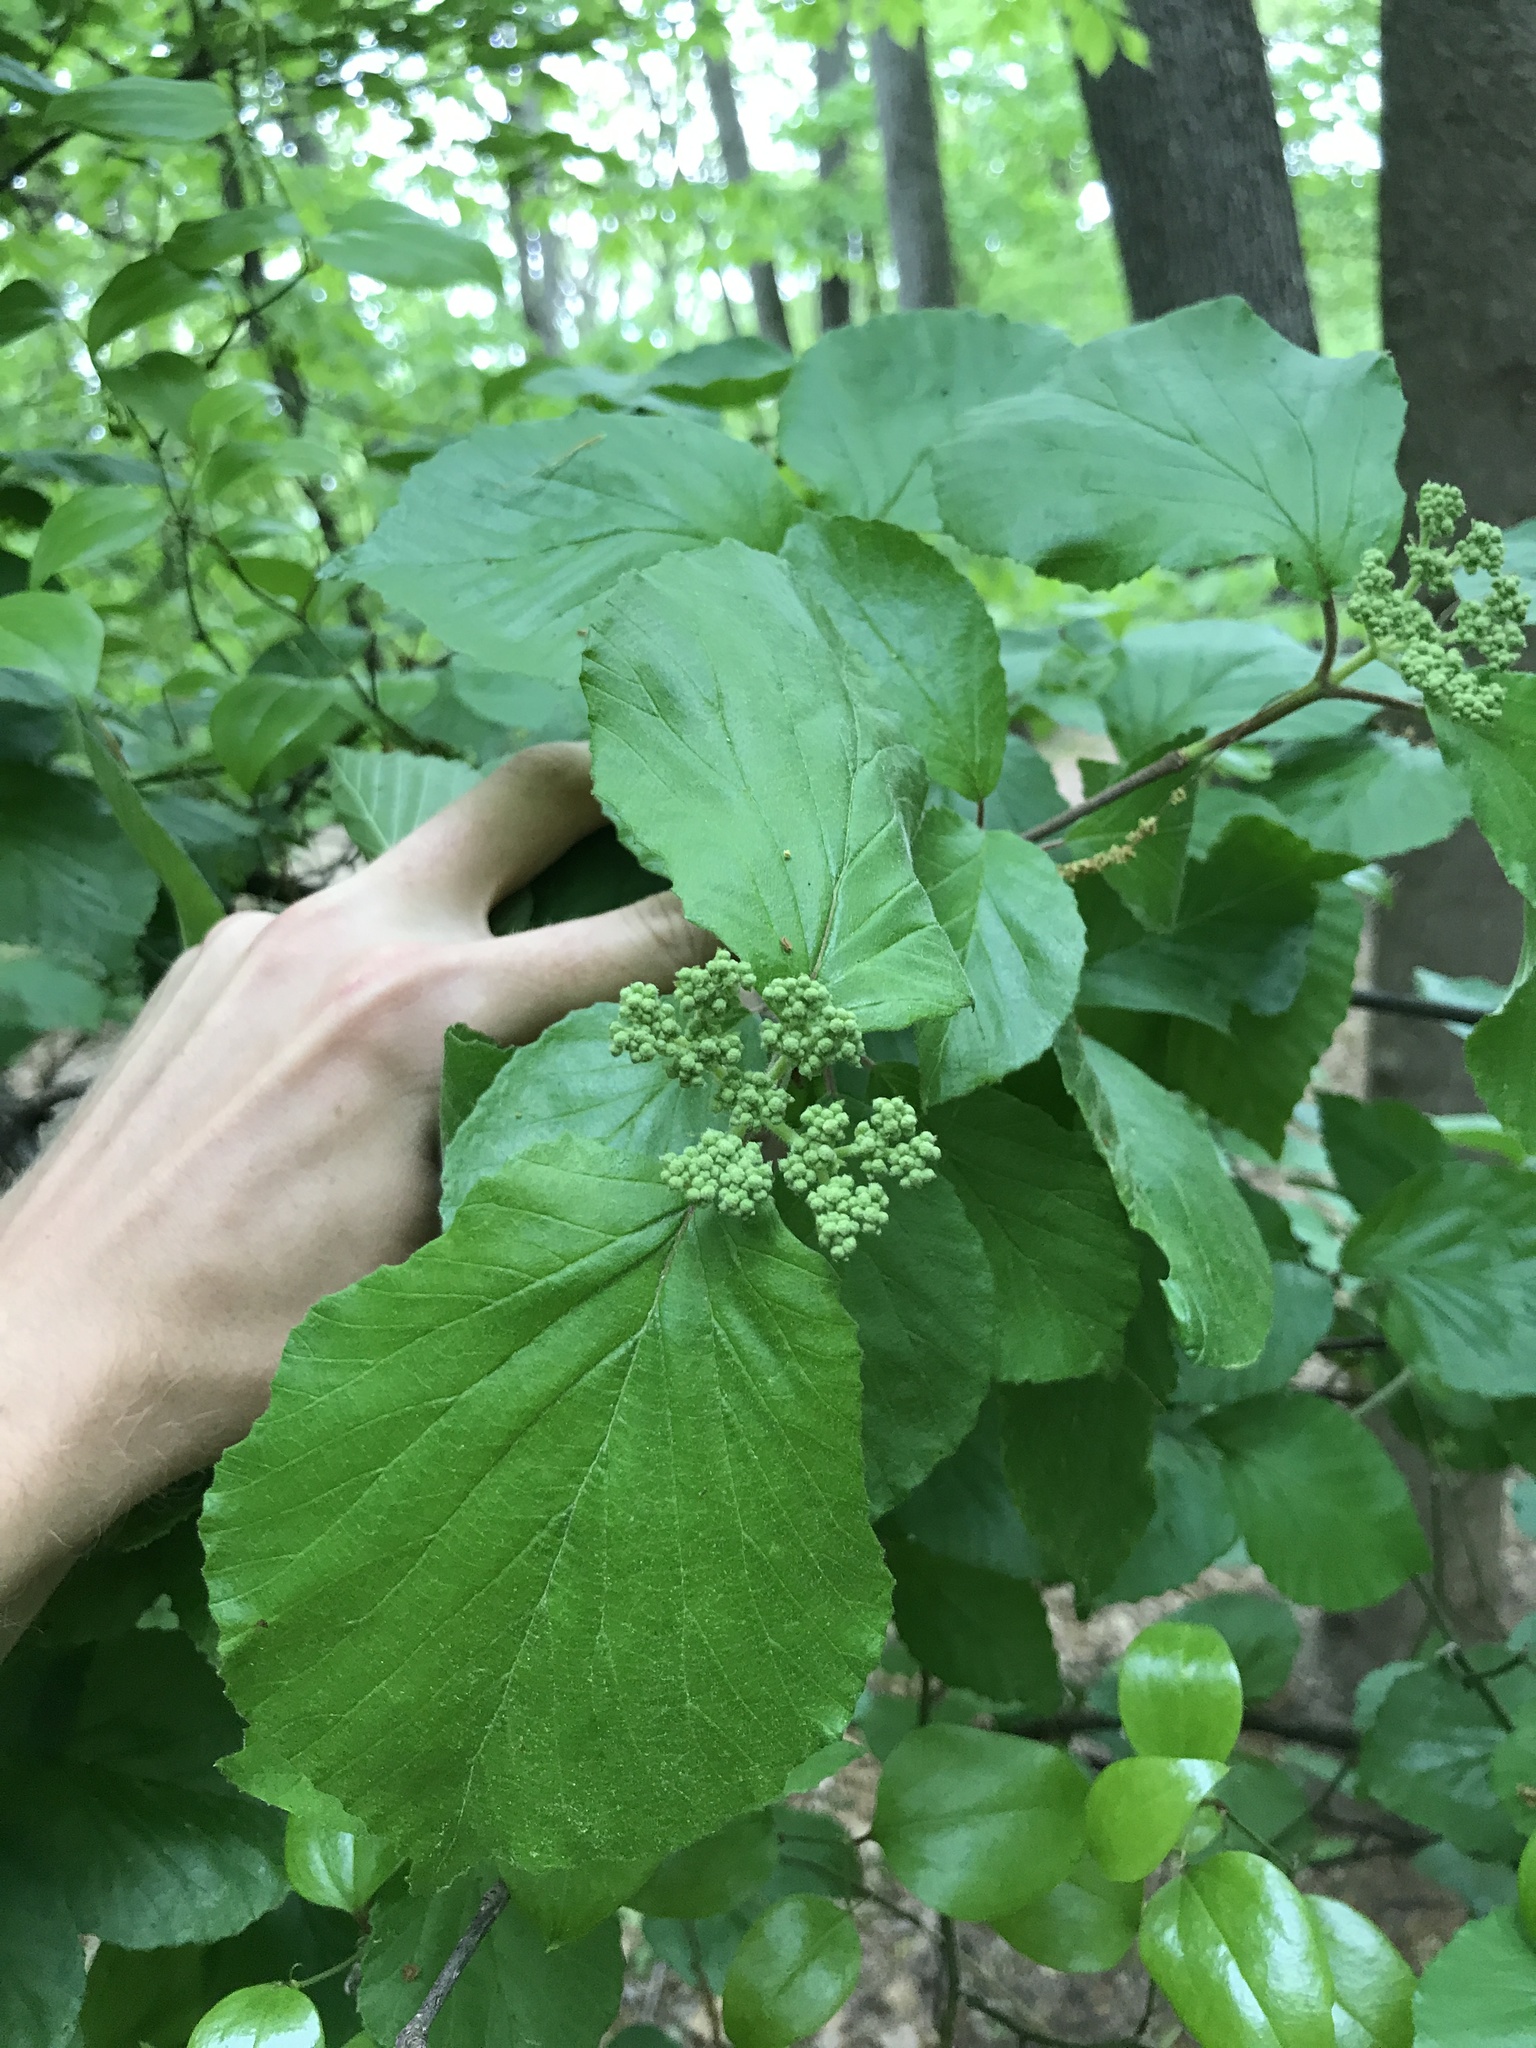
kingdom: Plantae
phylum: Tracheophyta
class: Magnoliopsida
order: Dipsacales
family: Viburnaceae
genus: Viburnum
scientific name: Viburnum dilatatum
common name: Linden arrowwood
